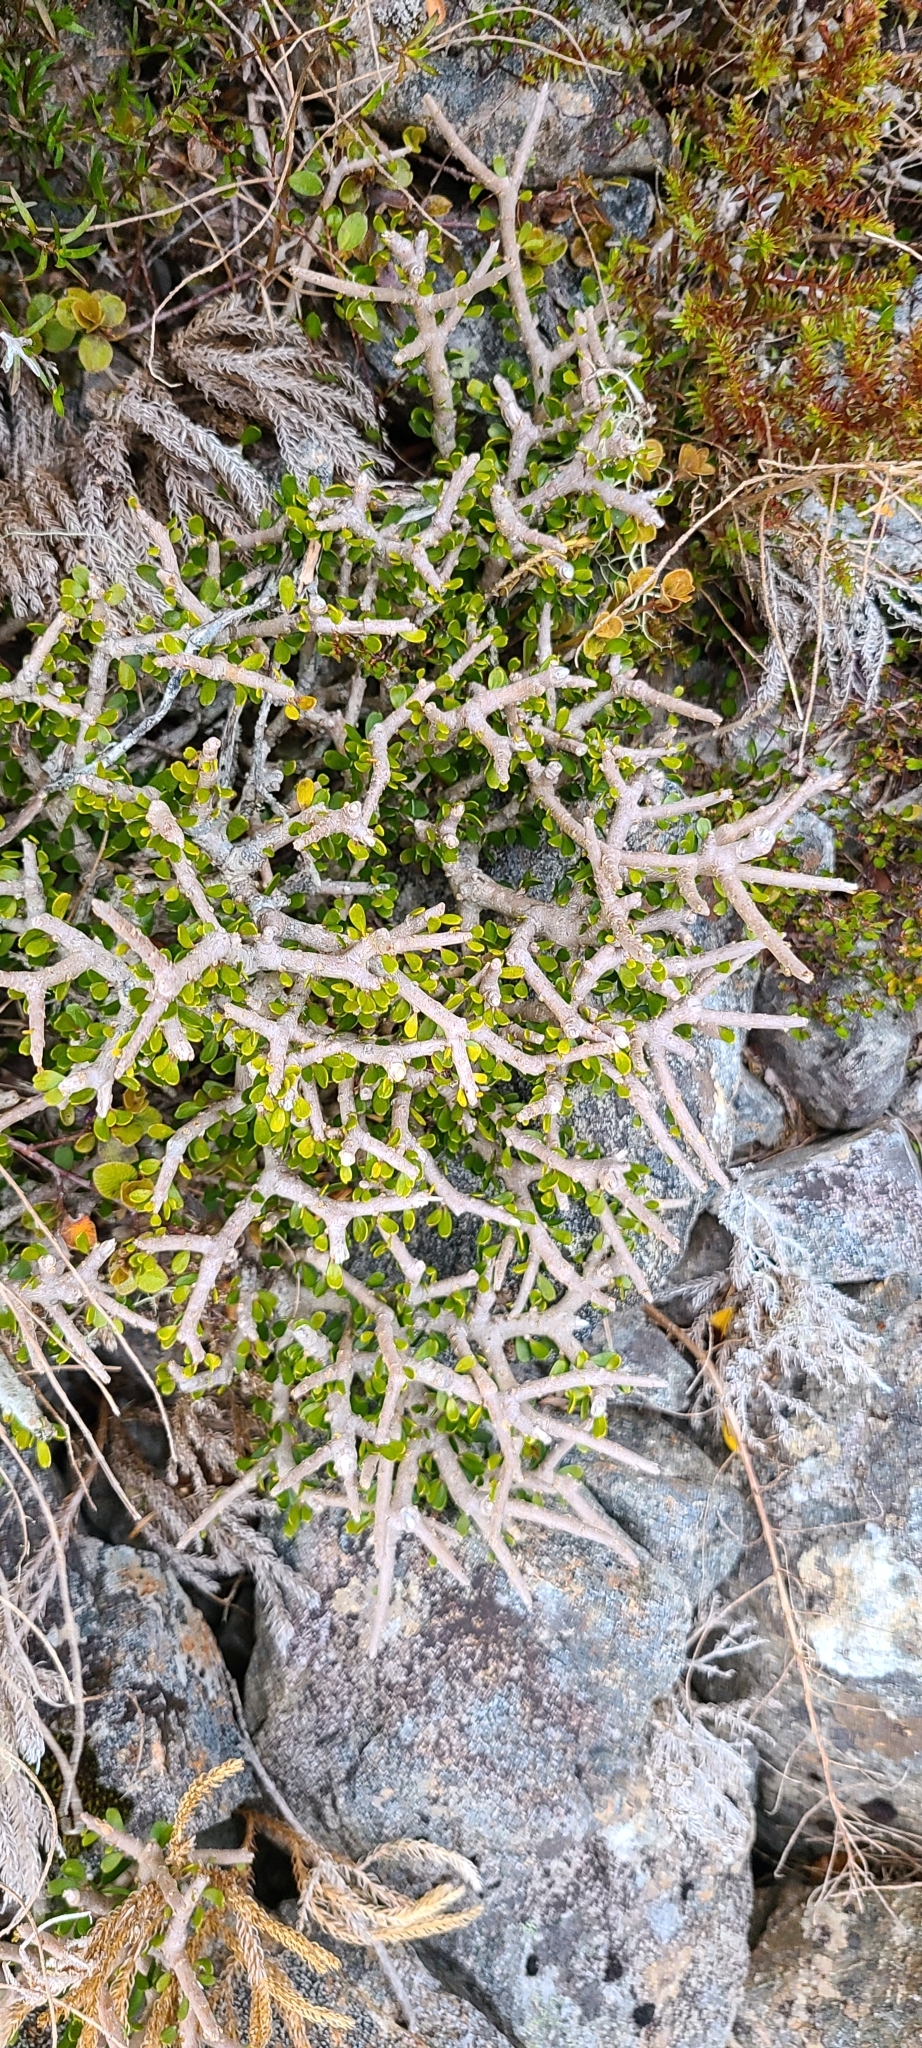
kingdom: Plantae
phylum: Tracheophyta
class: Magnoliopsida
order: Malpighiales
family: Violaceae
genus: Melicytus
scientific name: Melicytus alpinus
